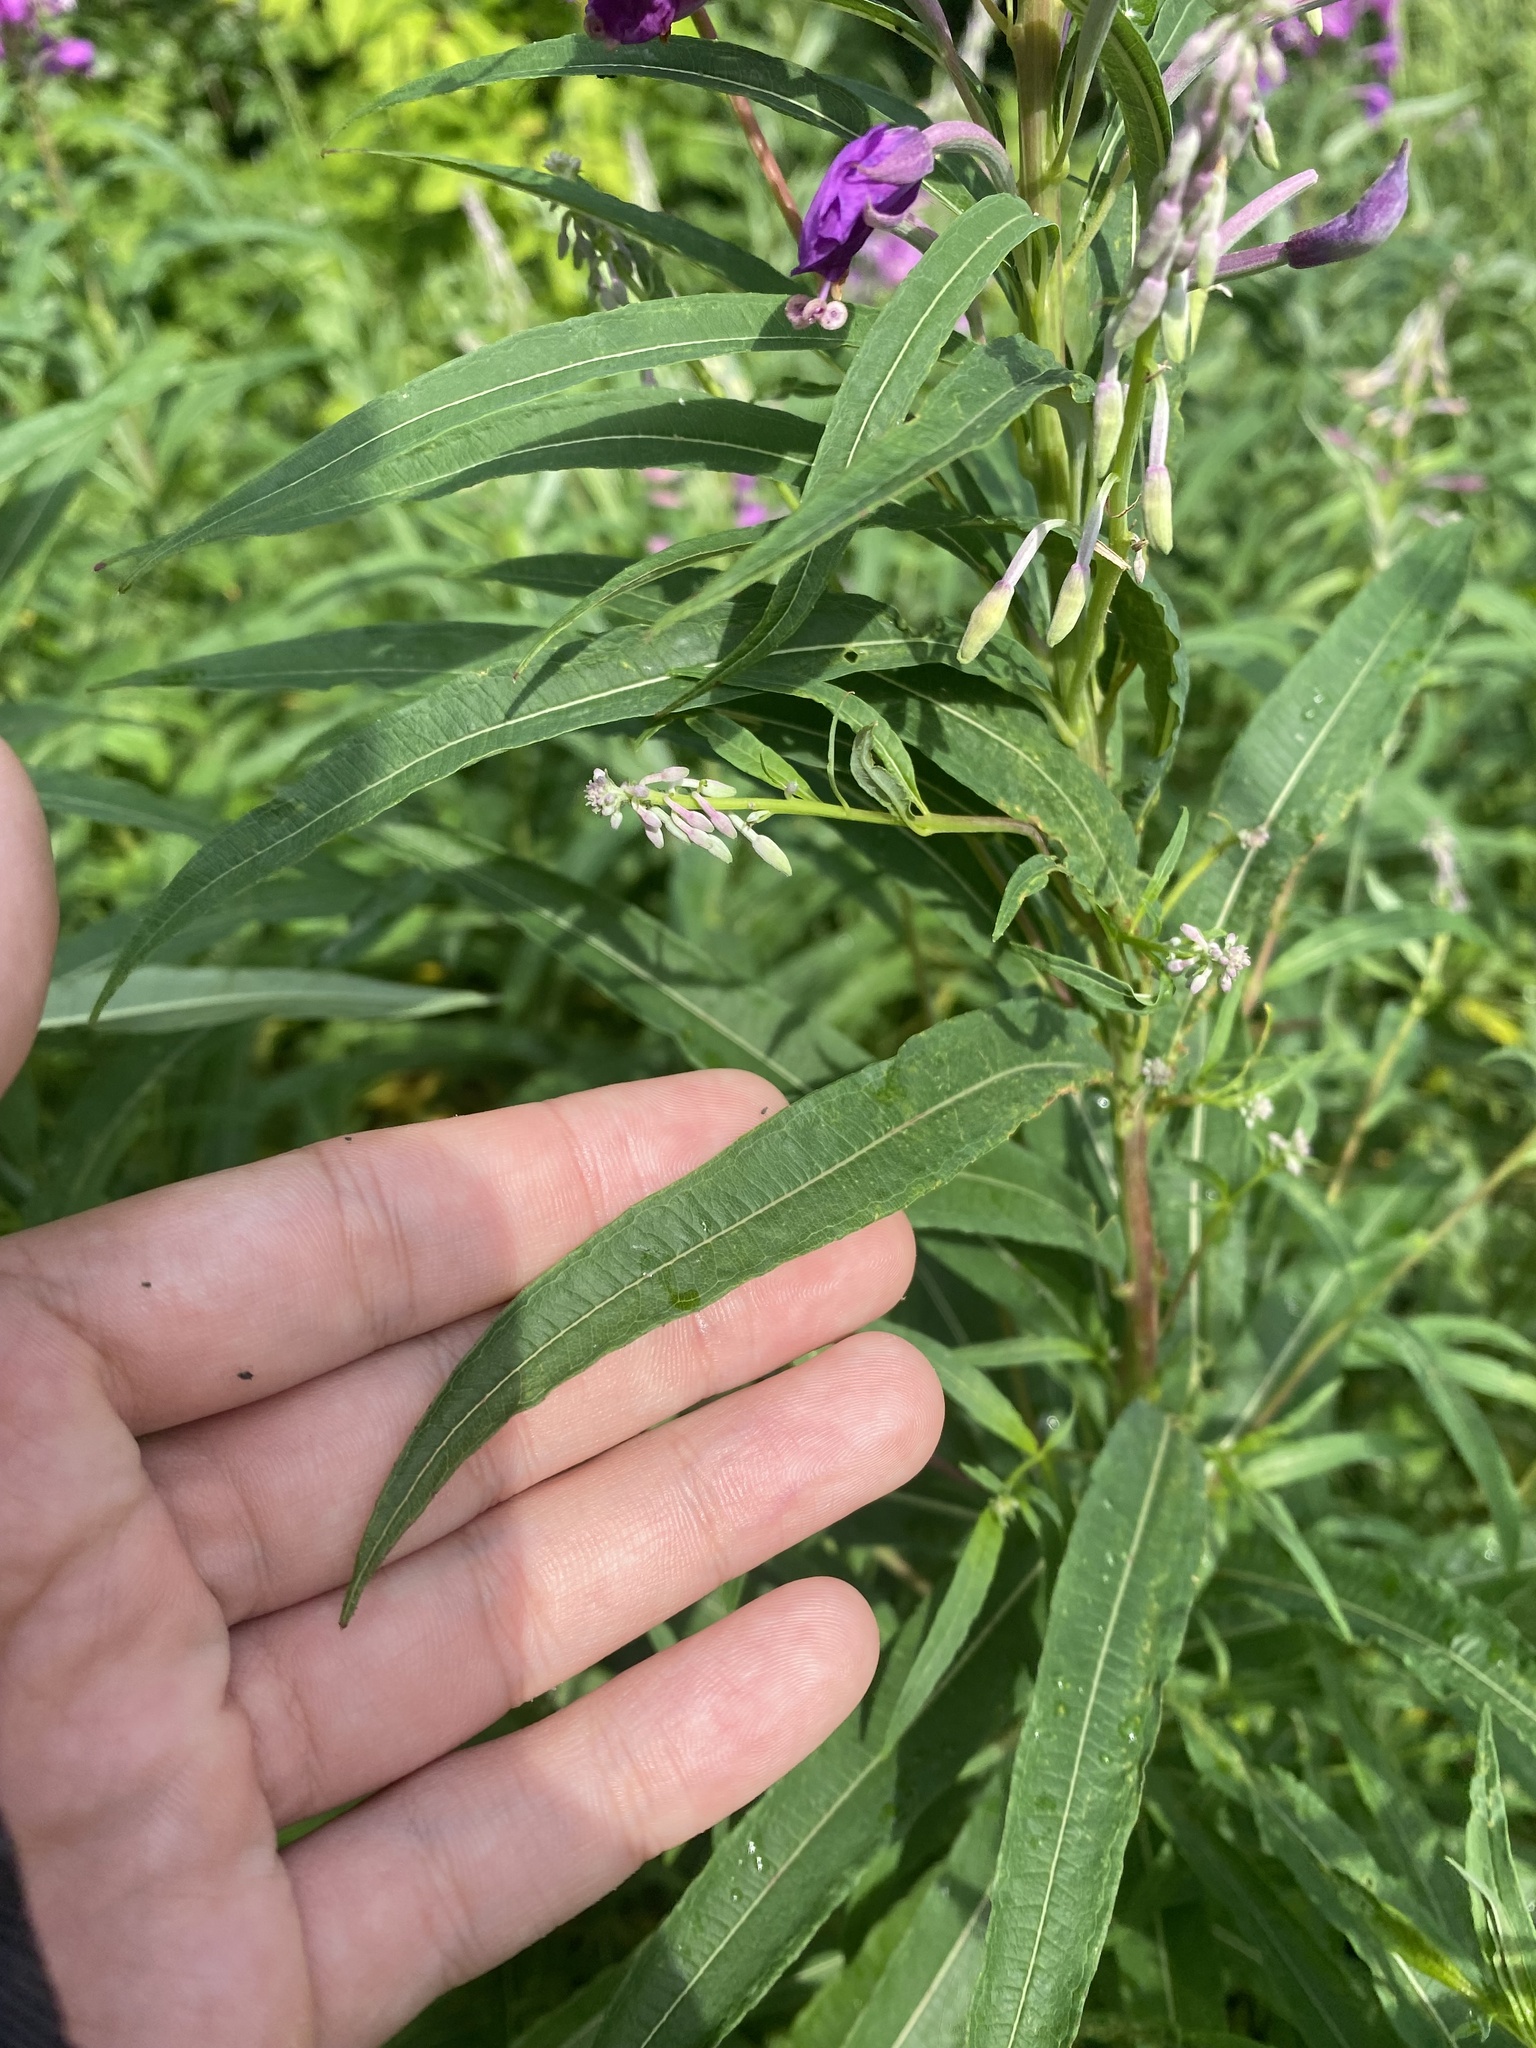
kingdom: Plantae
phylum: Tracheophyta
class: Magnoliopsida
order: Myrtales
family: Onagraceae
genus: Chamaenerion
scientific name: Chamaenerion angustifolium
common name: Fireweed
